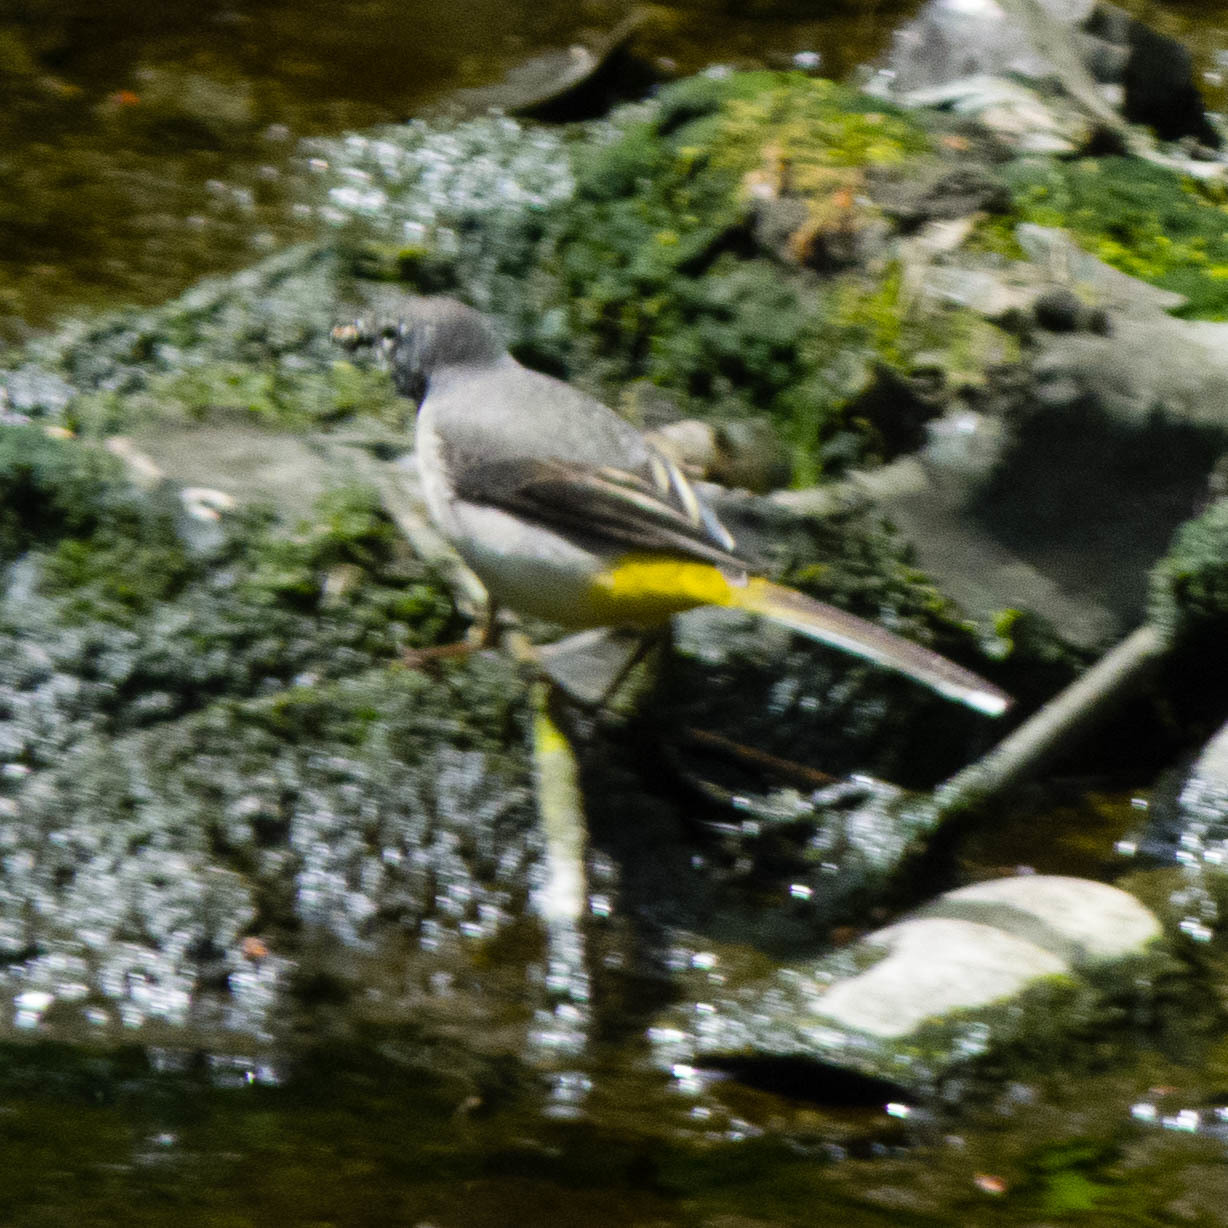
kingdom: Animalia
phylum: Chordata
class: Aves
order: Passeriformes
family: Motacillidae
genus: Motacilla
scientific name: Motacilla cinerea
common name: Grey wagtail
